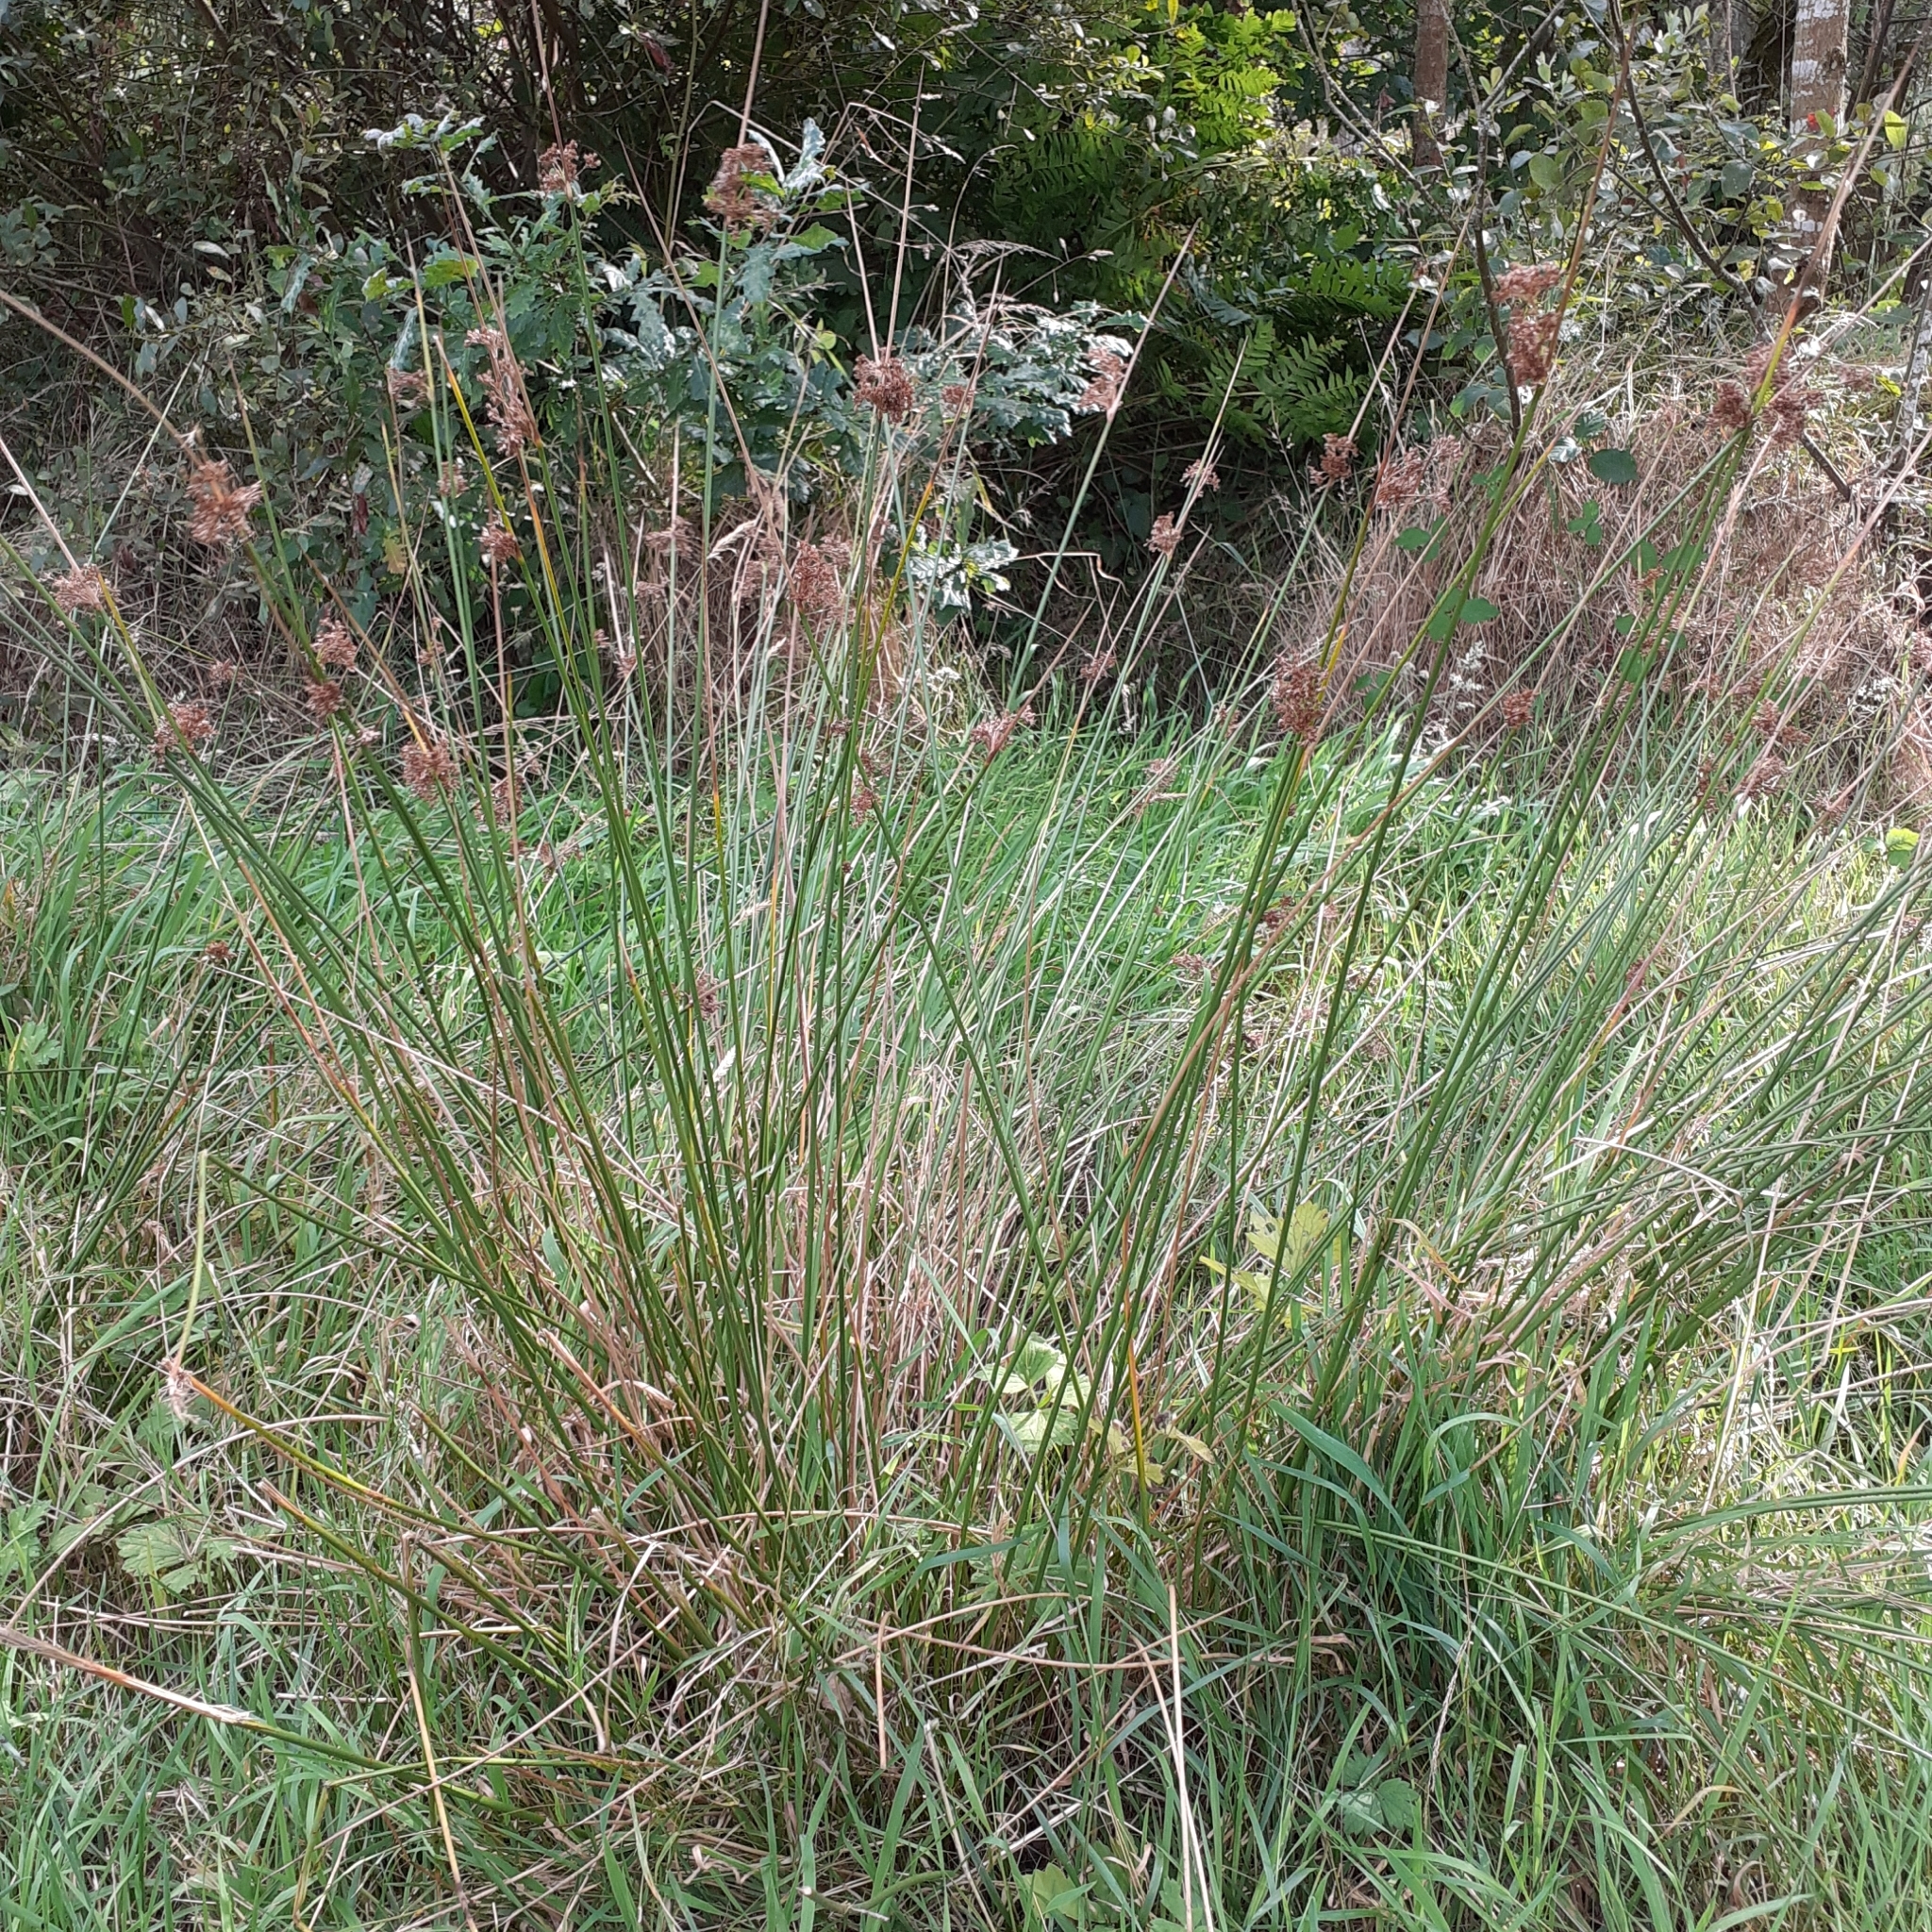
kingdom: Plantae
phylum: Tracheophyta
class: Liliopsida
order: Poales
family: Juncaceae
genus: Juncus
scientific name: Juncus effusus
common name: Soft rush
